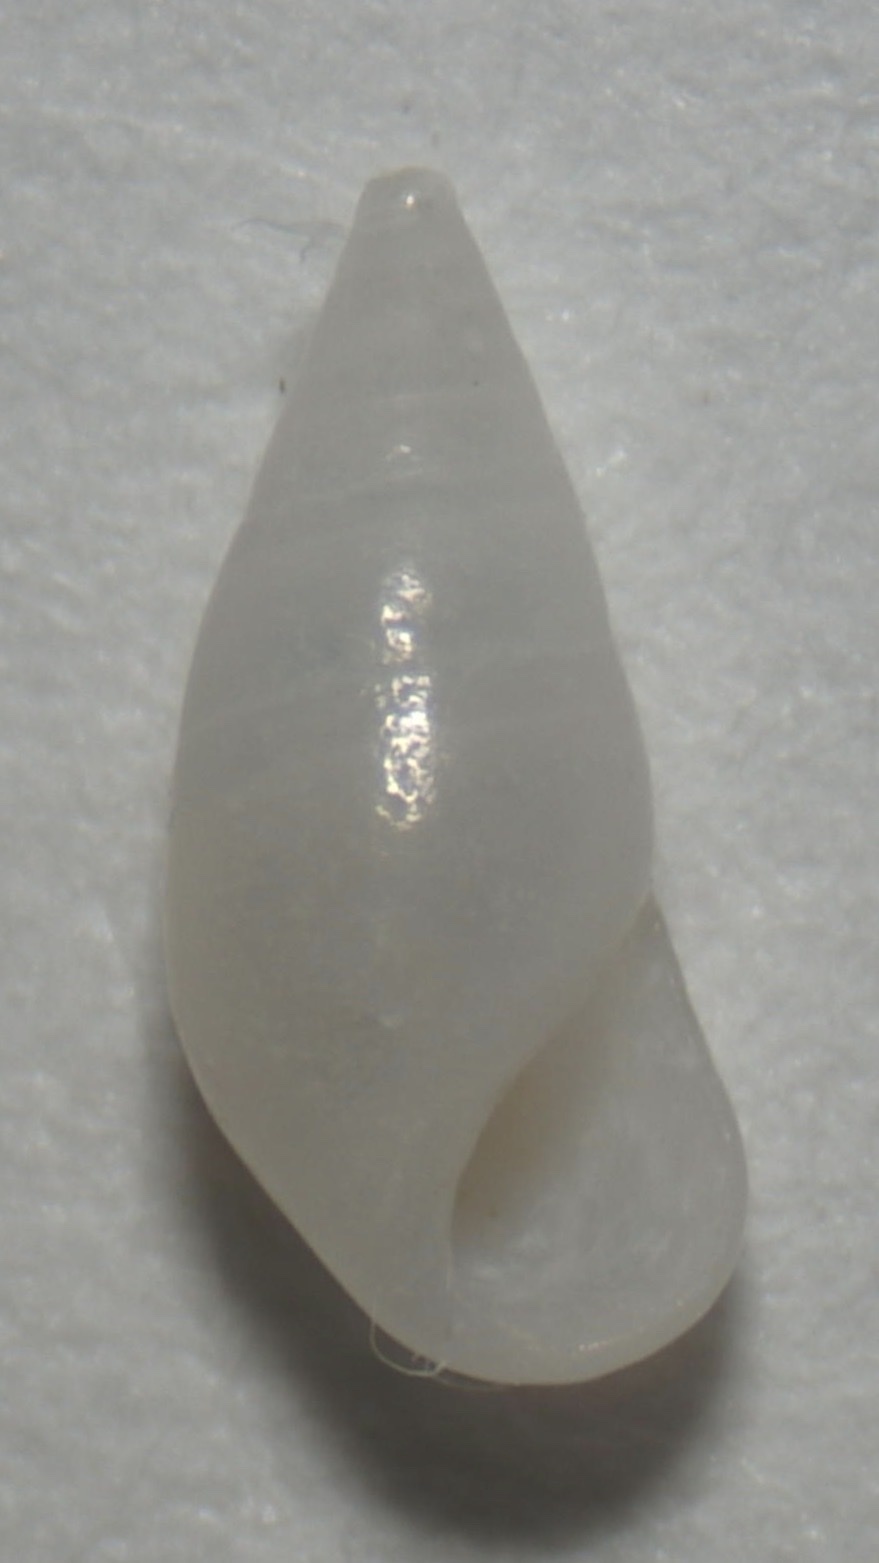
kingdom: Animalia
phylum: Mollusca
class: Gastropoda
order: Littorinimorpha
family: Zebinidae
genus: Zebina
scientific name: Zebina browniana
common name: Smooth risso
